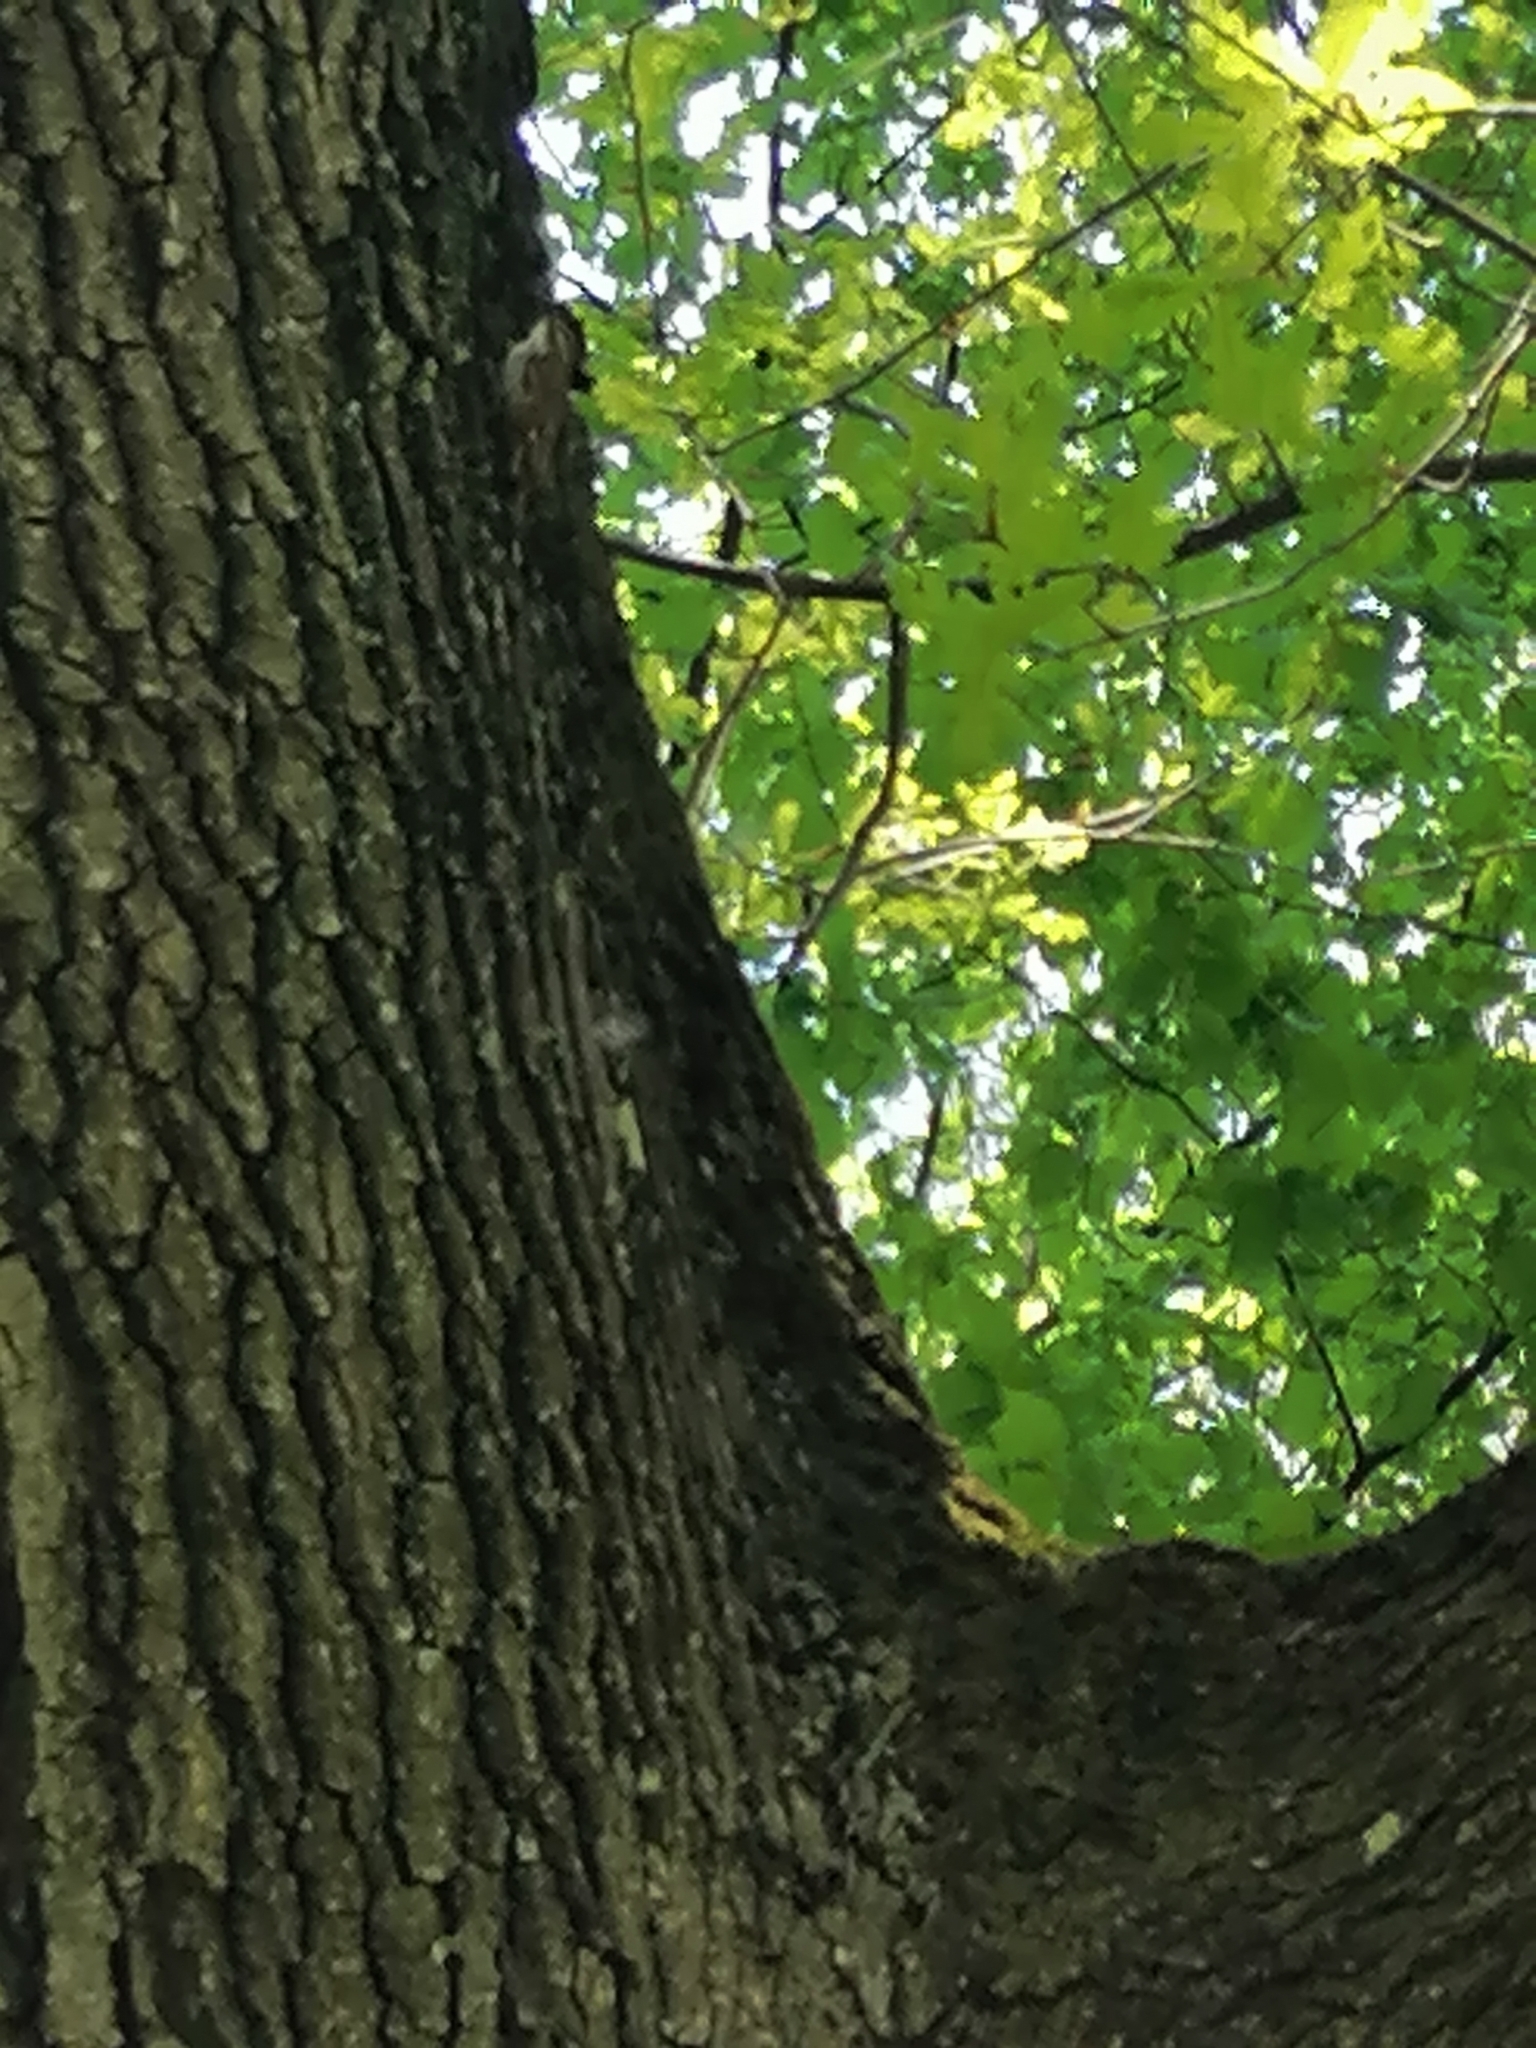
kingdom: Animalia
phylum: Chordata
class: Aves
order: Passeriformes
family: Certhiidae
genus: Certhia
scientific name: Certhia familiaris
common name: Eurasian treecreeper
